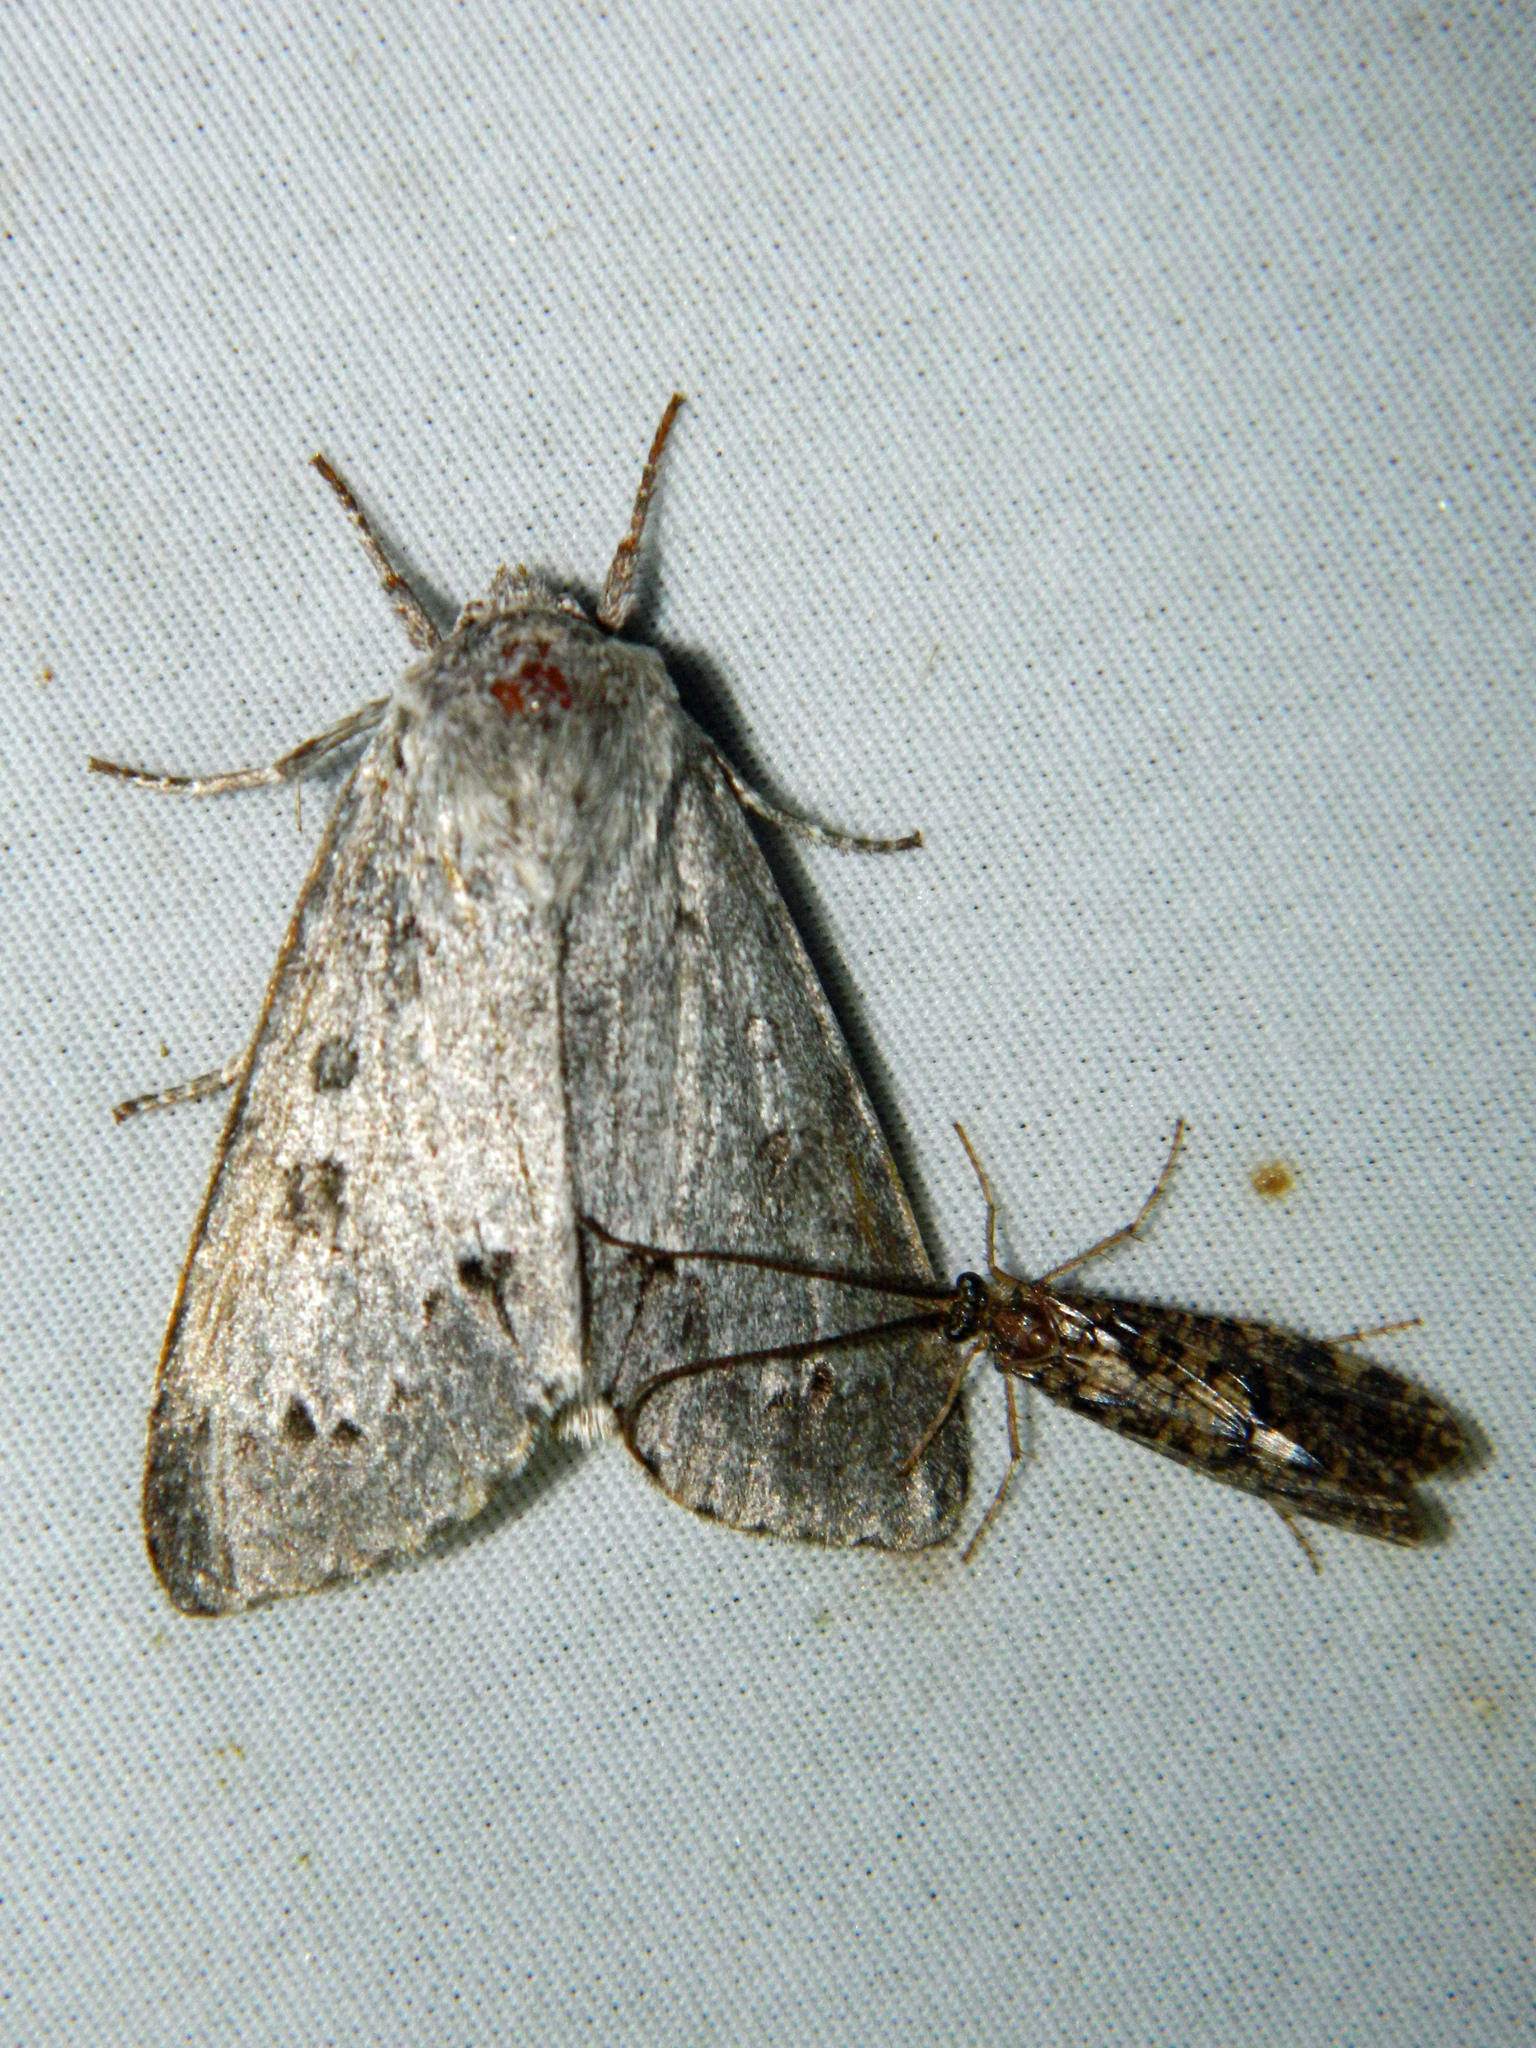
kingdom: Animalia
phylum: Arthropoda
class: Insecta
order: Lepidoptera
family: Noctuidae
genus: Acronicta
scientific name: Acronicta insita
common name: Large gray dagger
